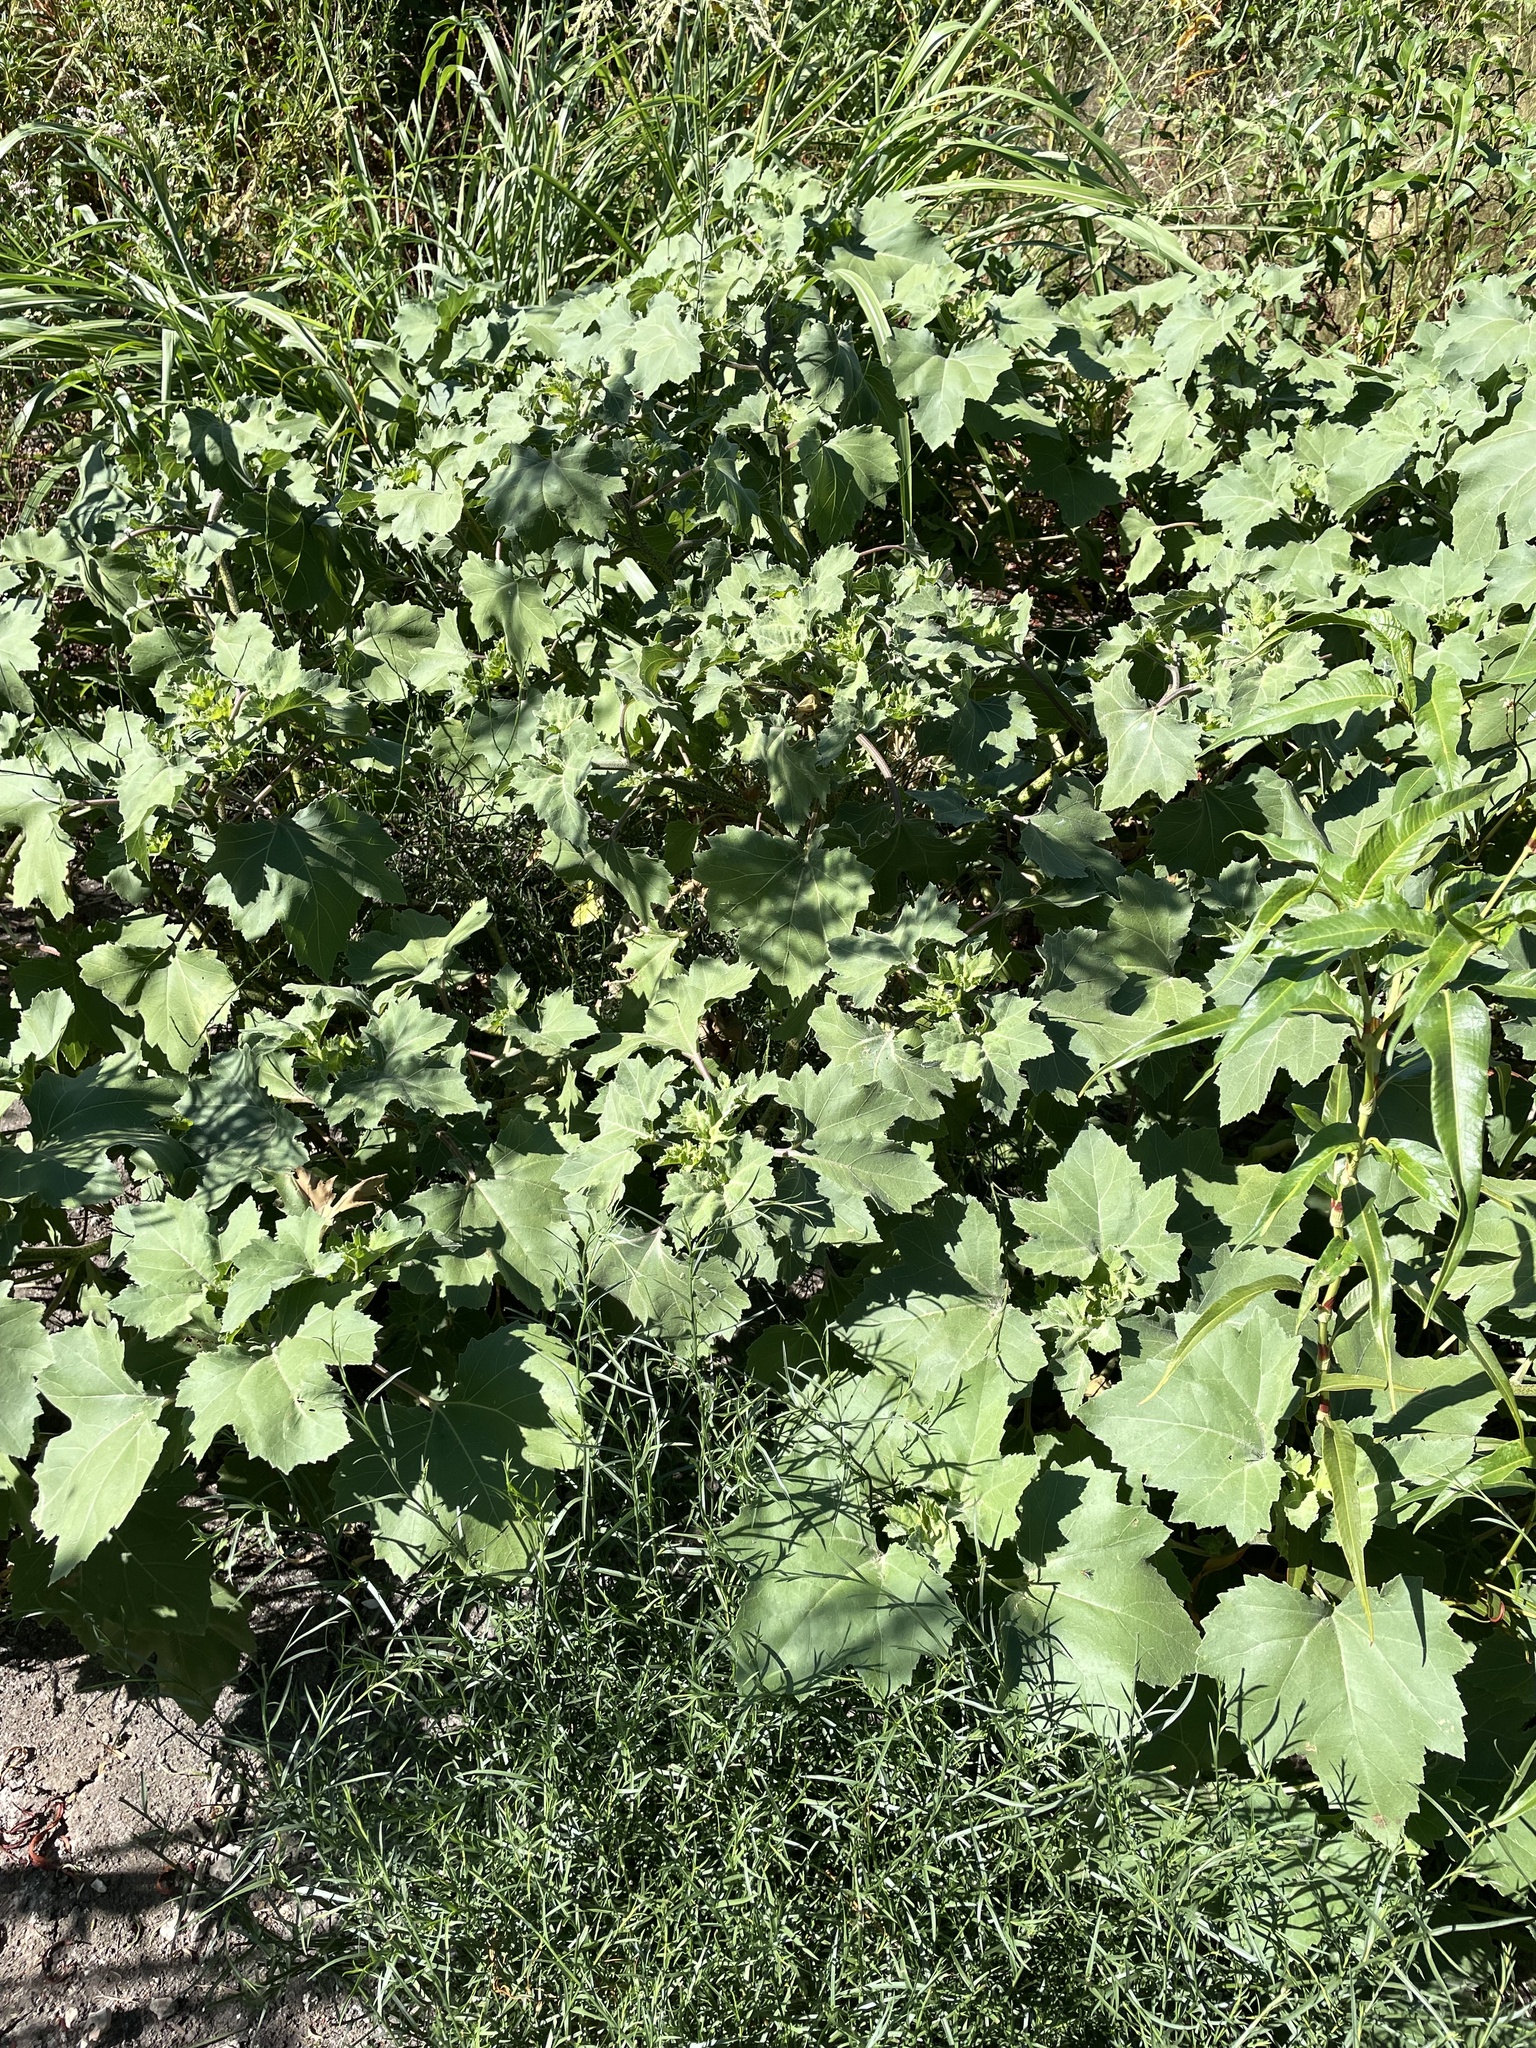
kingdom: Plantae
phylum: Tracheophyta
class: Magnoliopsida
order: Asterales
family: Asteraceae
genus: Xanthium
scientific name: Xanthium strumarium
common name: Rough cocklebur
